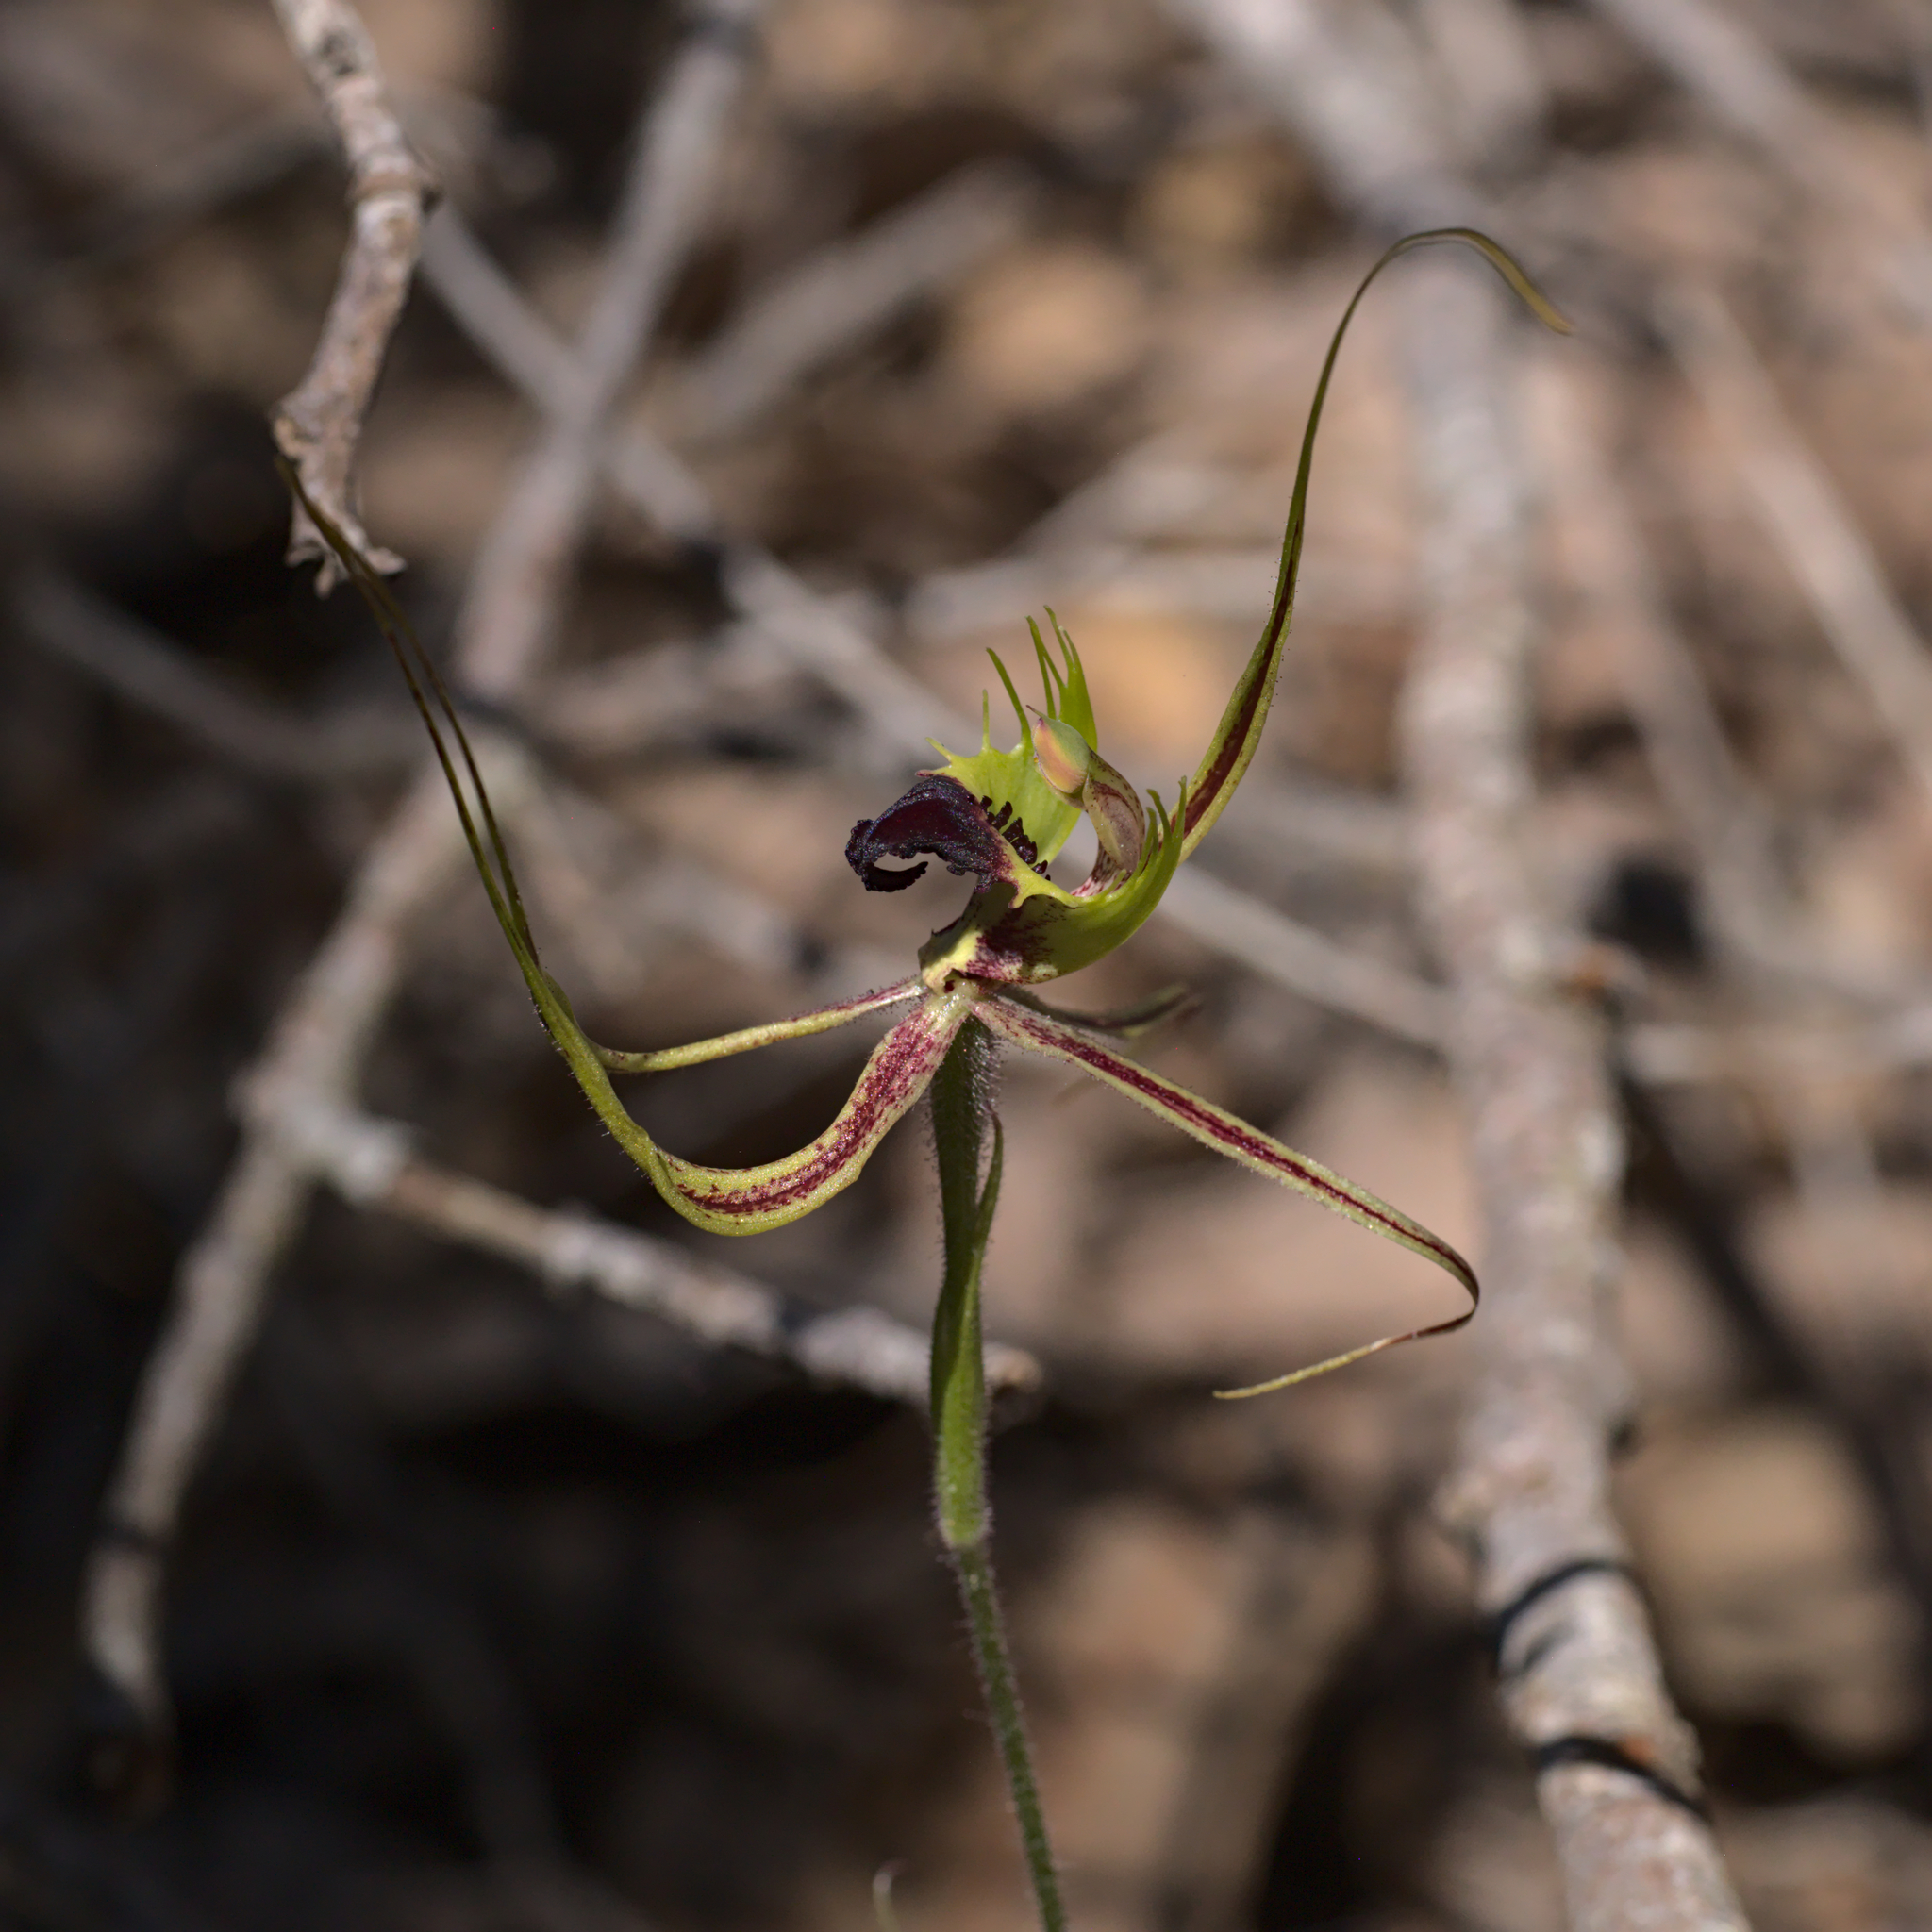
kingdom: Plantae
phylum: Tracheophyta
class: Liliopsida
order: Asparagales
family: Orchidaceae
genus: Caladenia
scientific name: Caladenia attingens
